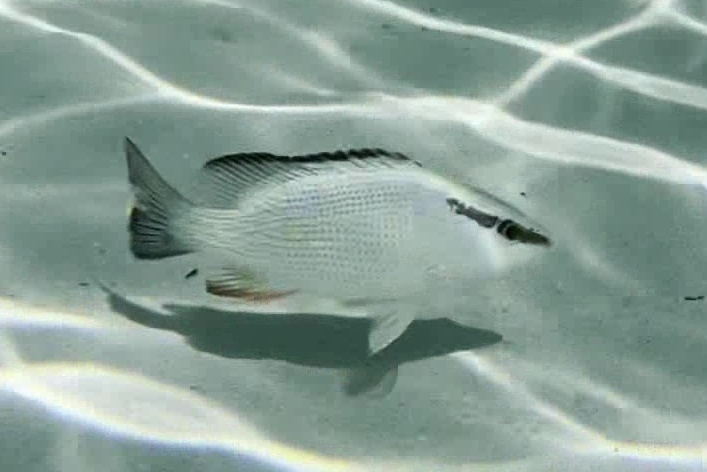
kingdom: Animalia
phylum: Chordata
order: Perciformes
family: Lutjanidae
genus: Lutjanus
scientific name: Lutjanus griseus
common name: Gray snapper
